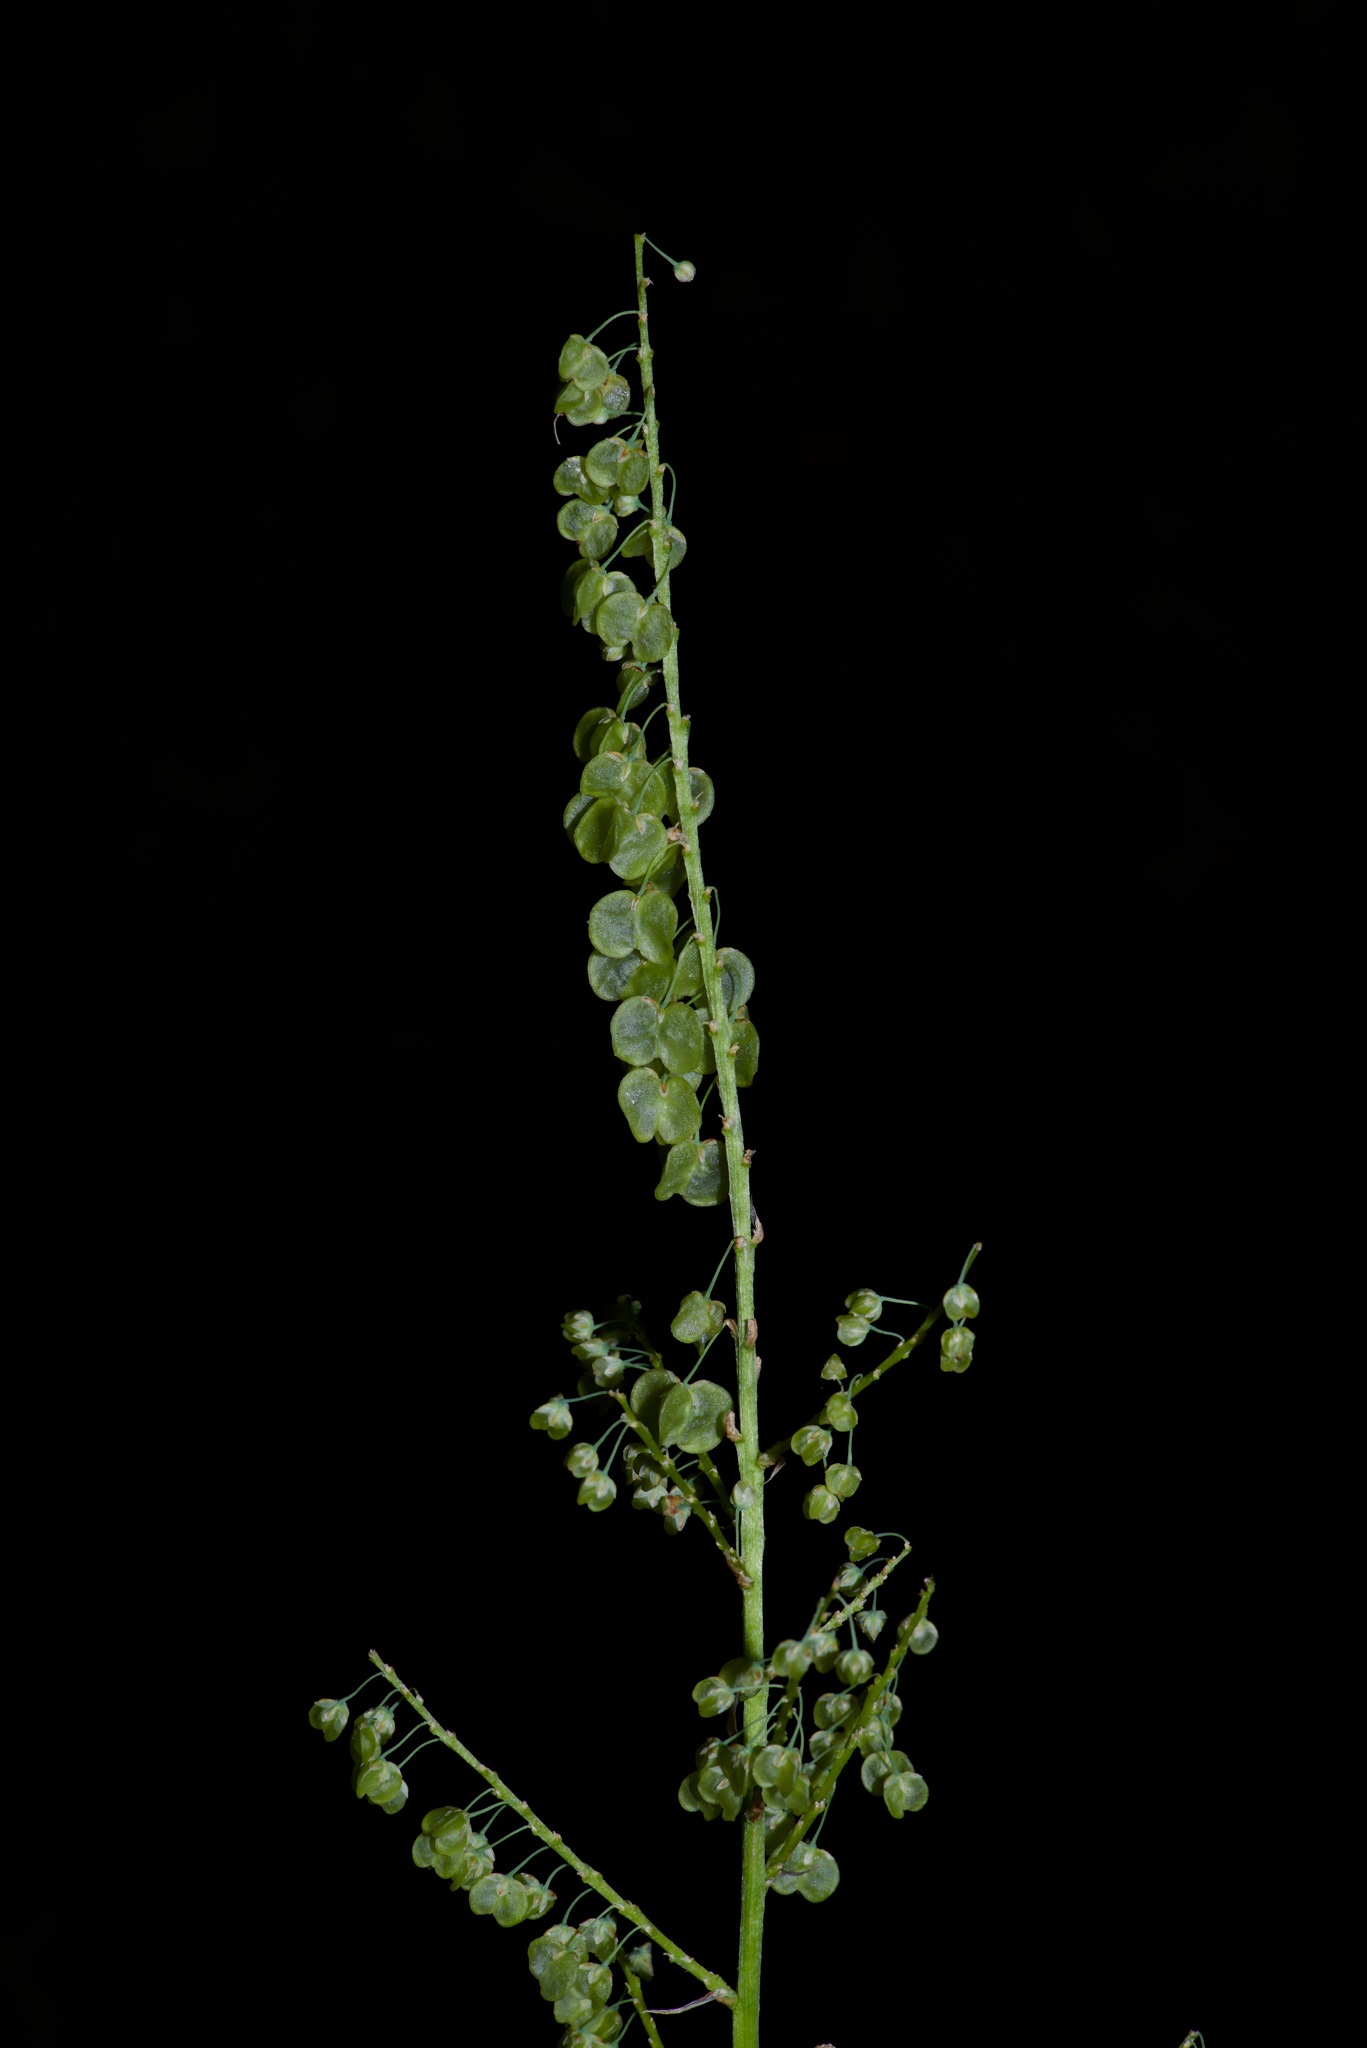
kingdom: Plantae
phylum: Tracheophyta
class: Liliopsida
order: Asparagales
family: Asparagaceae
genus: Nolina
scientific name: Nolina lindheimeriana
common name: Lindheimer's bear-grass
